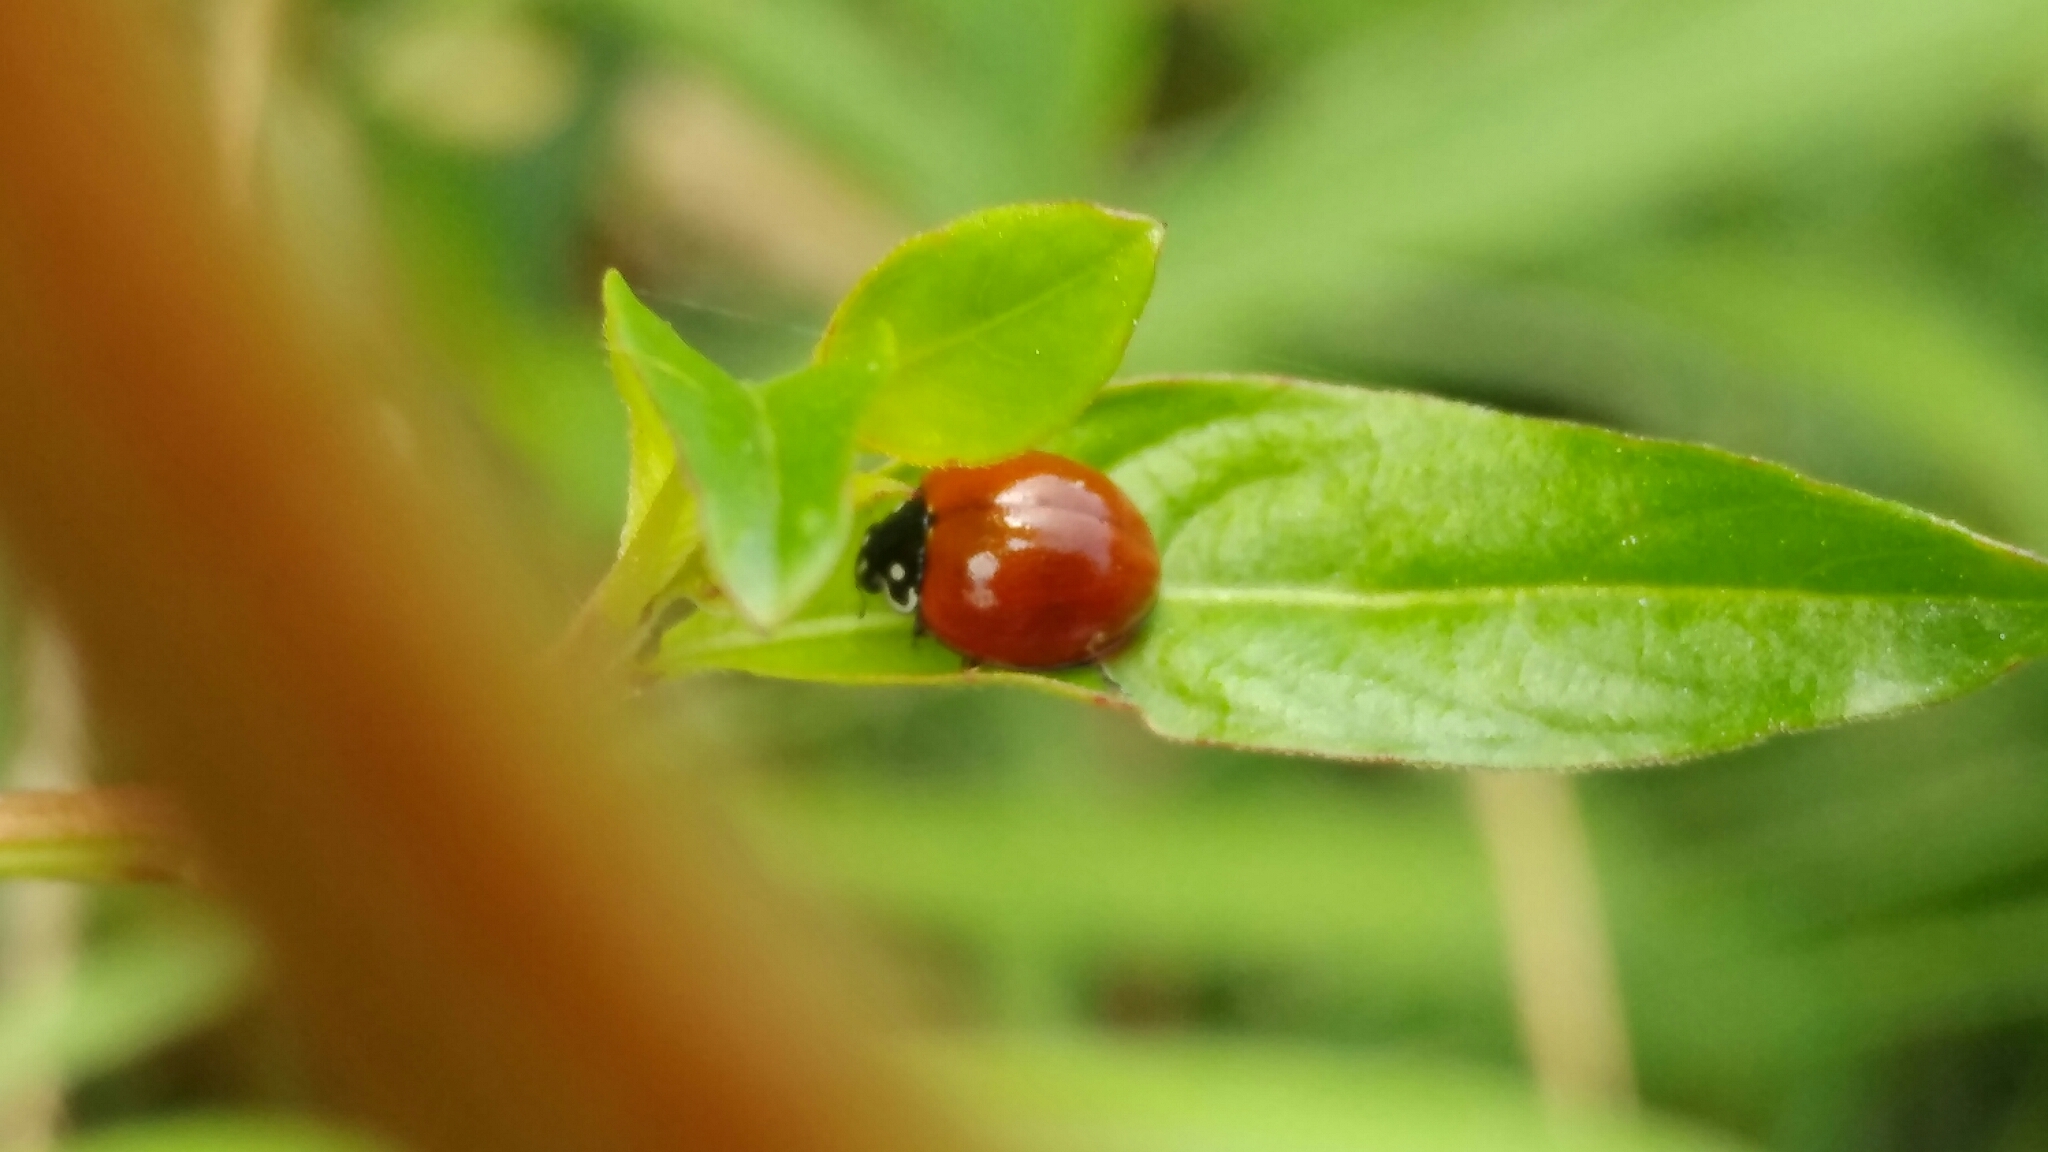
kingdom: Animalia
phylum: Arthropoda
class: Insecta
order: Coleoptera
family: Coccinellidae
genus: Cycloneda
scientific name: Cycloneda sanguinea
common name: Ladybird beetle
